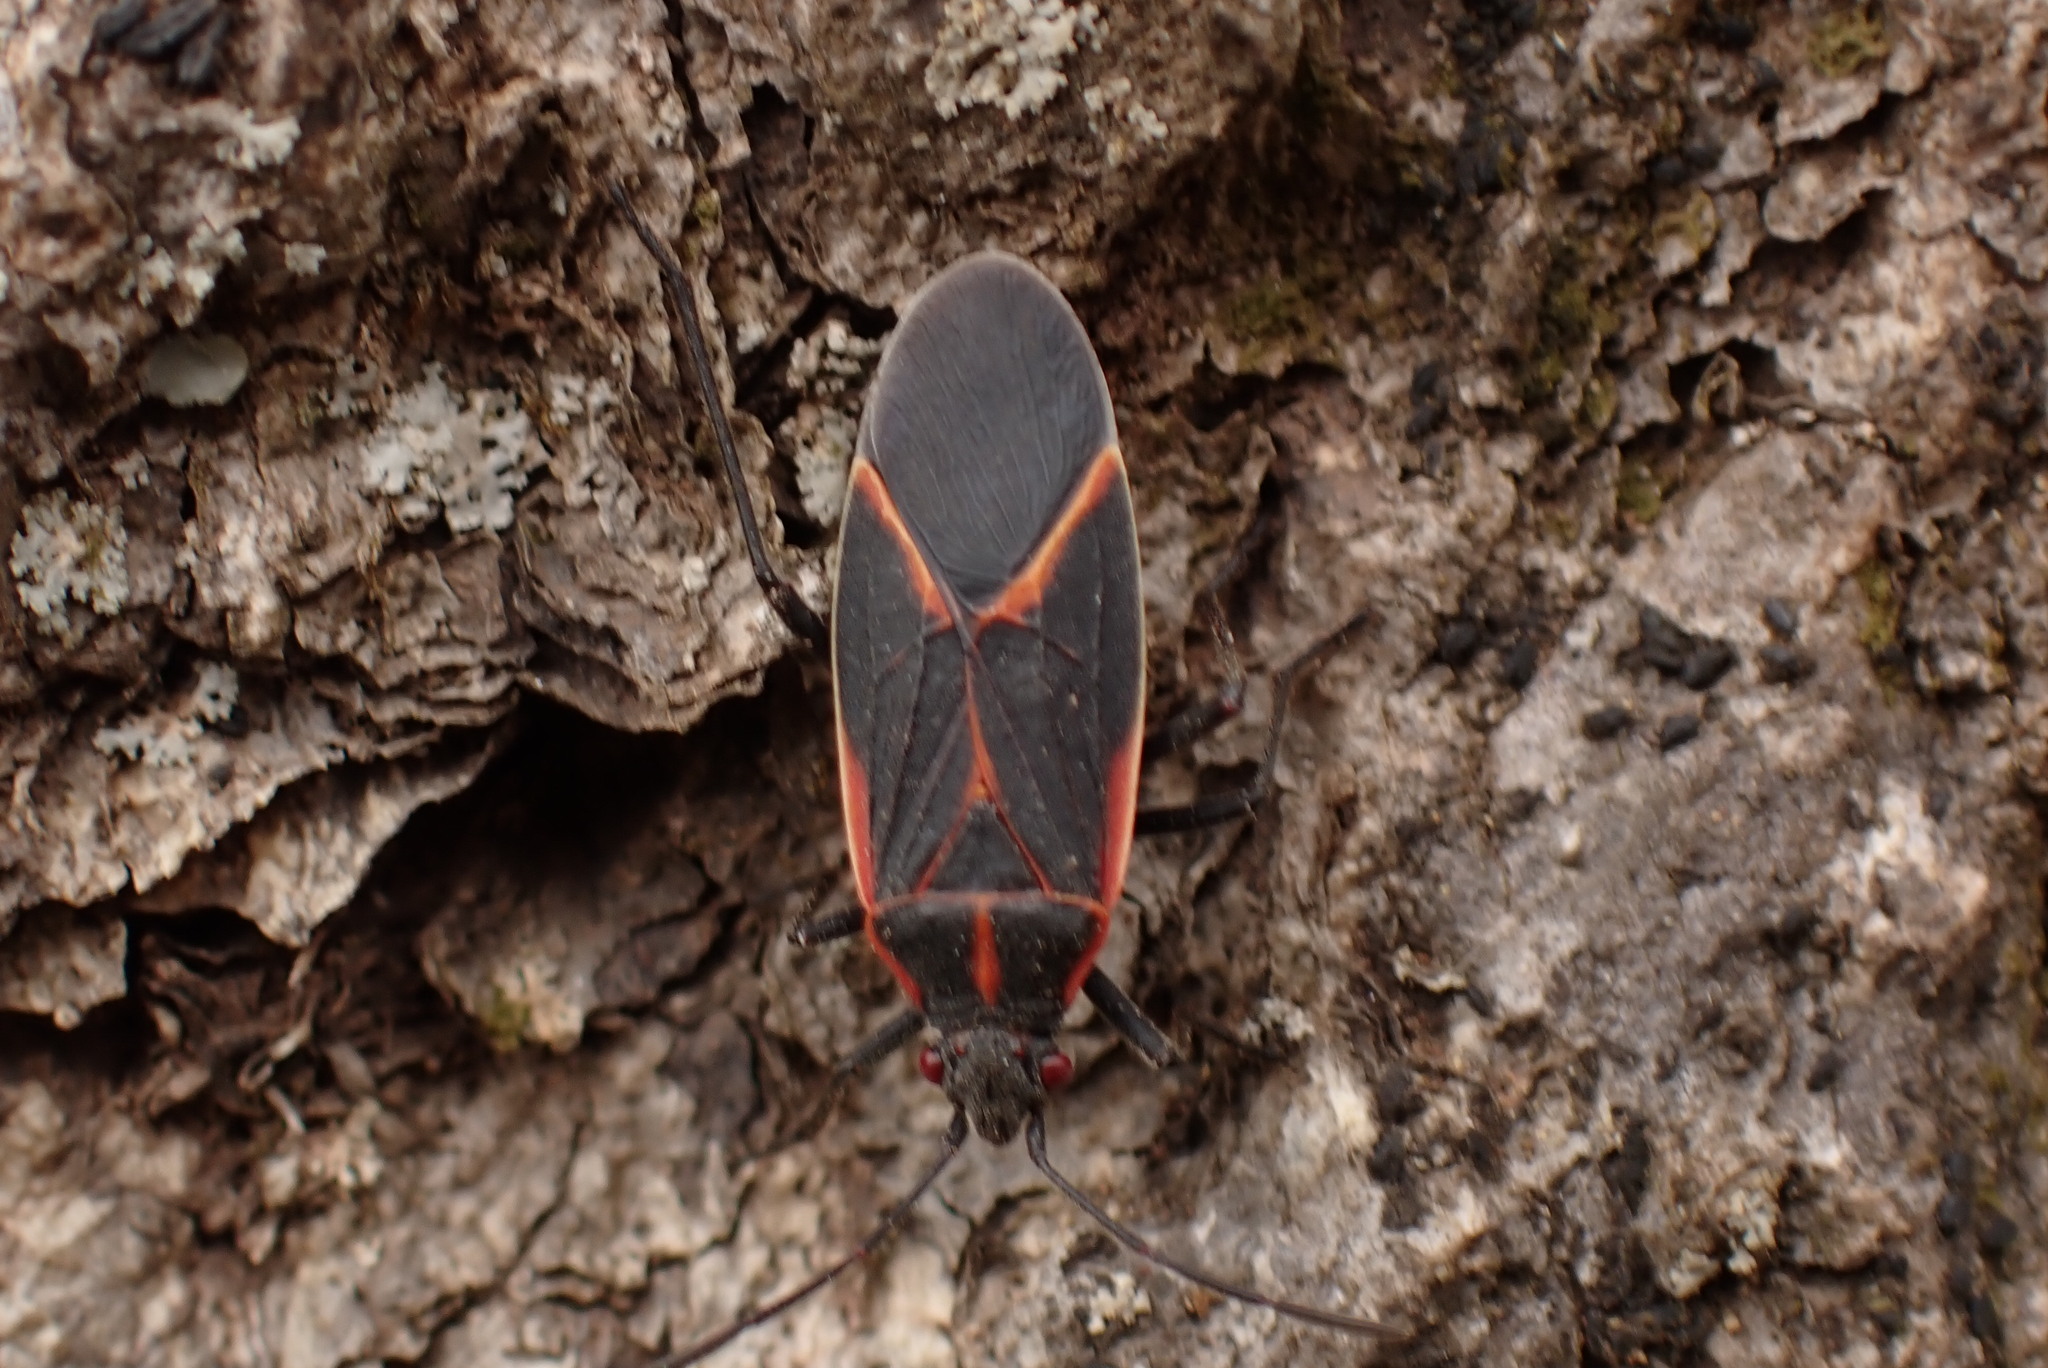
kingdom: Animalia
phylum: Arthropoda
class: Insecta
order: Hemiptera
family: Rhopalidae
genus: Boisea
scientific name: Boisea trivittata
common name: Boxelder bug
